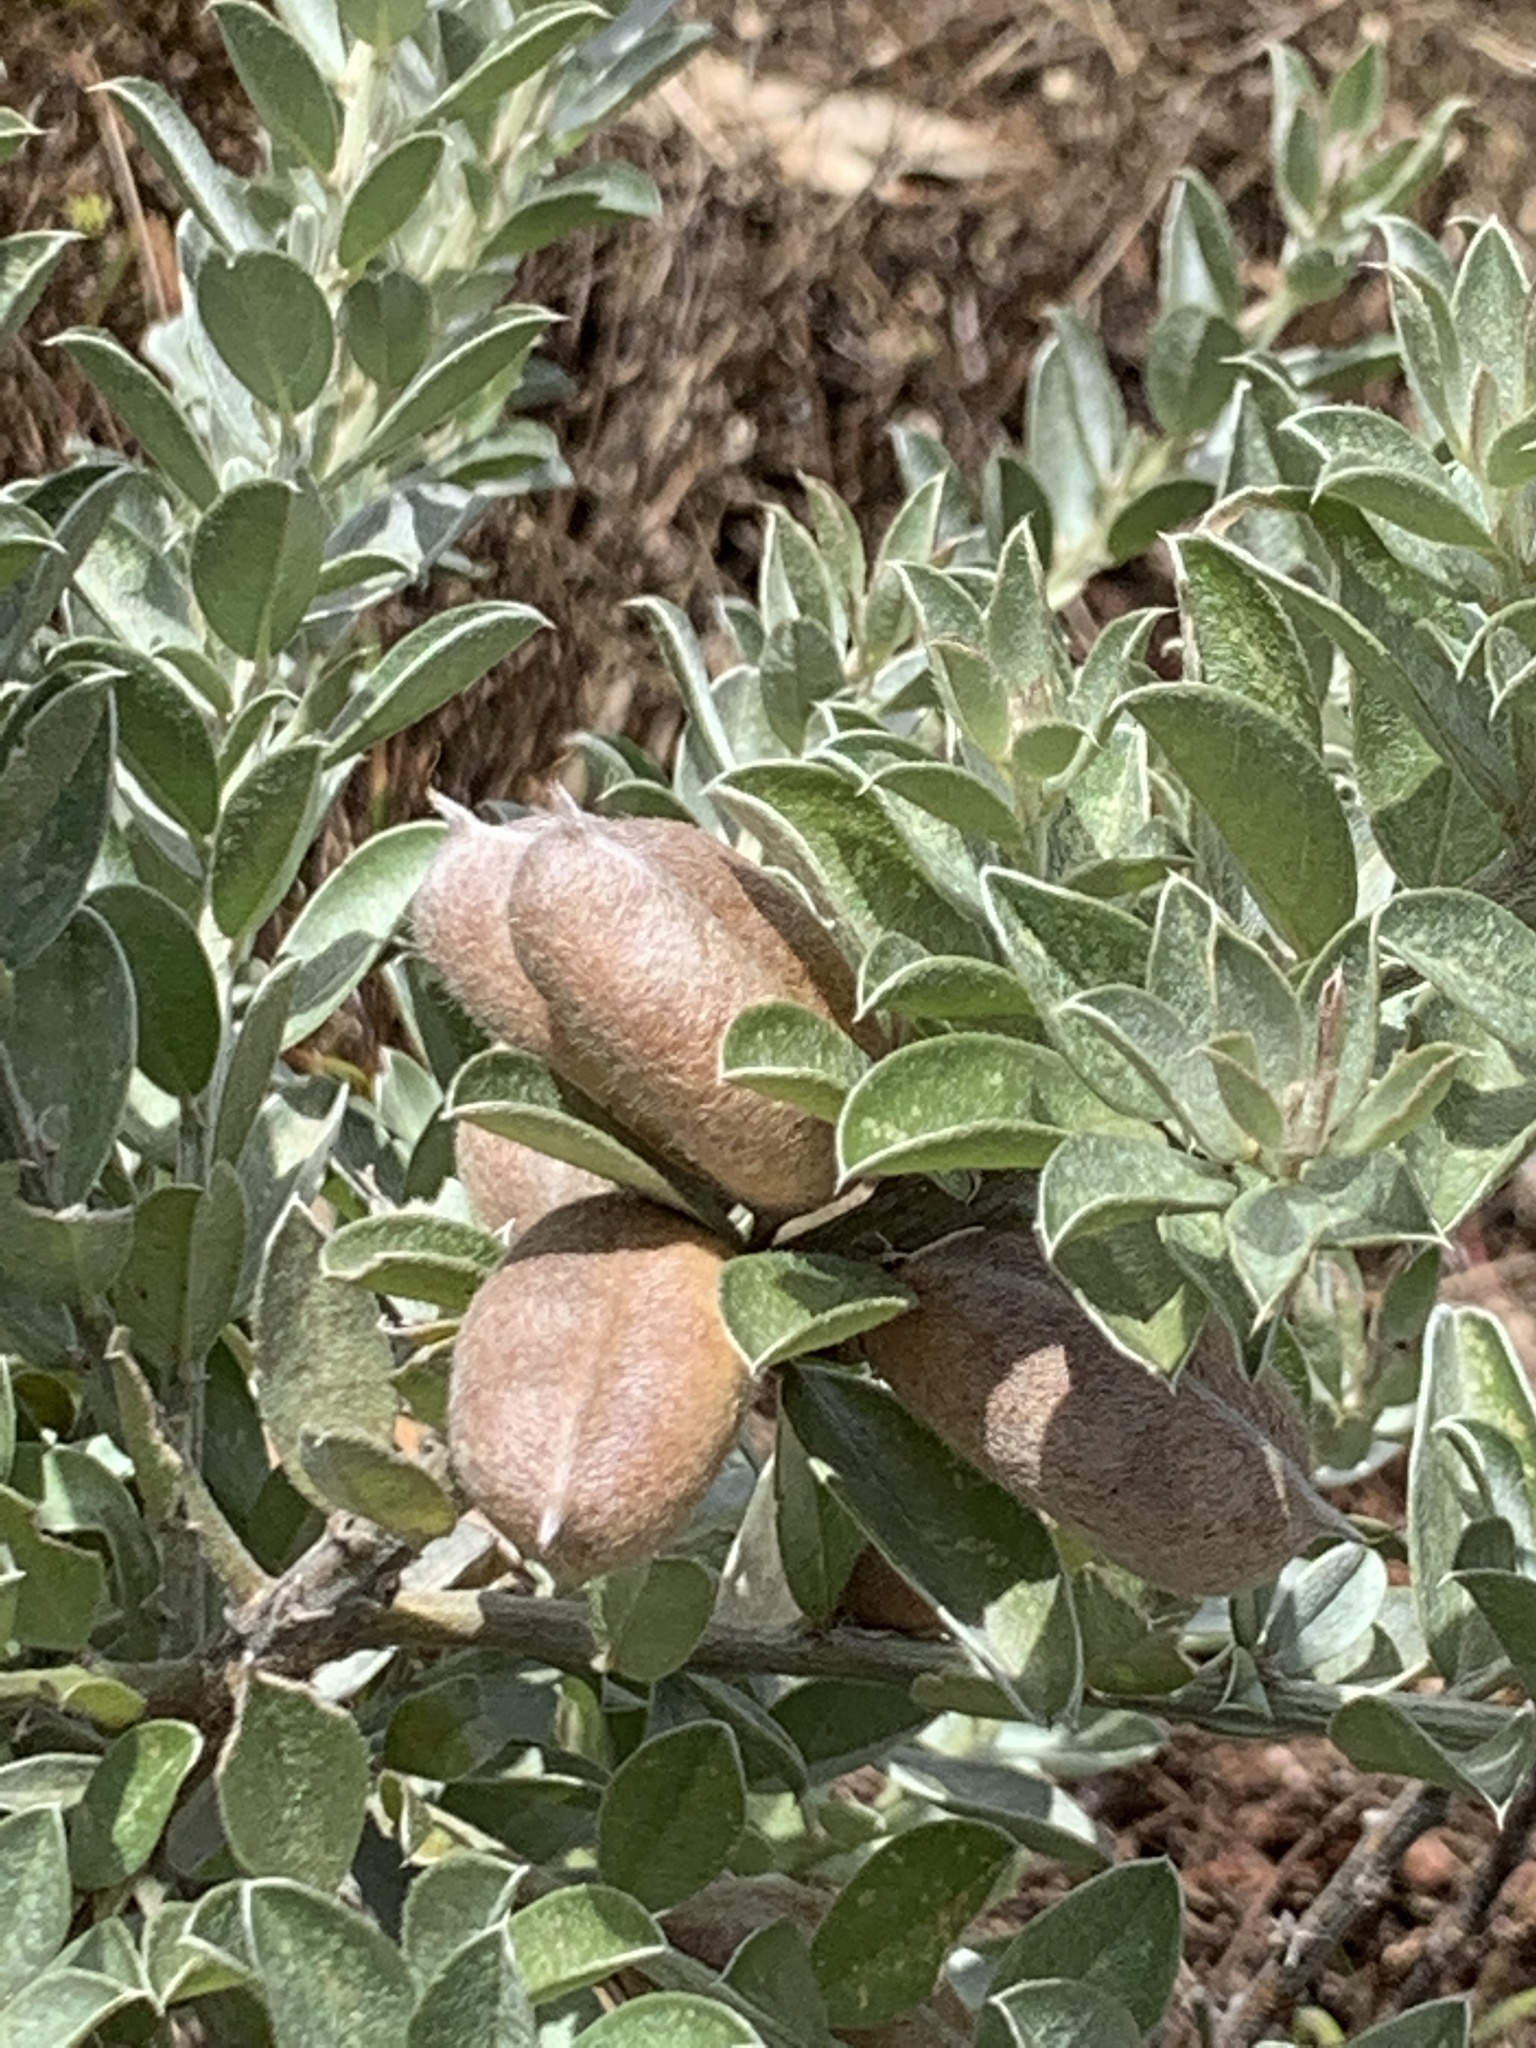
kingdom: Plantae
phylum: Tracheophyta
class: Magnoliopsida
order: Fabales
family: Fabaceae
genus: Podalyria
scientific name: Podalyria sericea
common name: Silver podalyria
